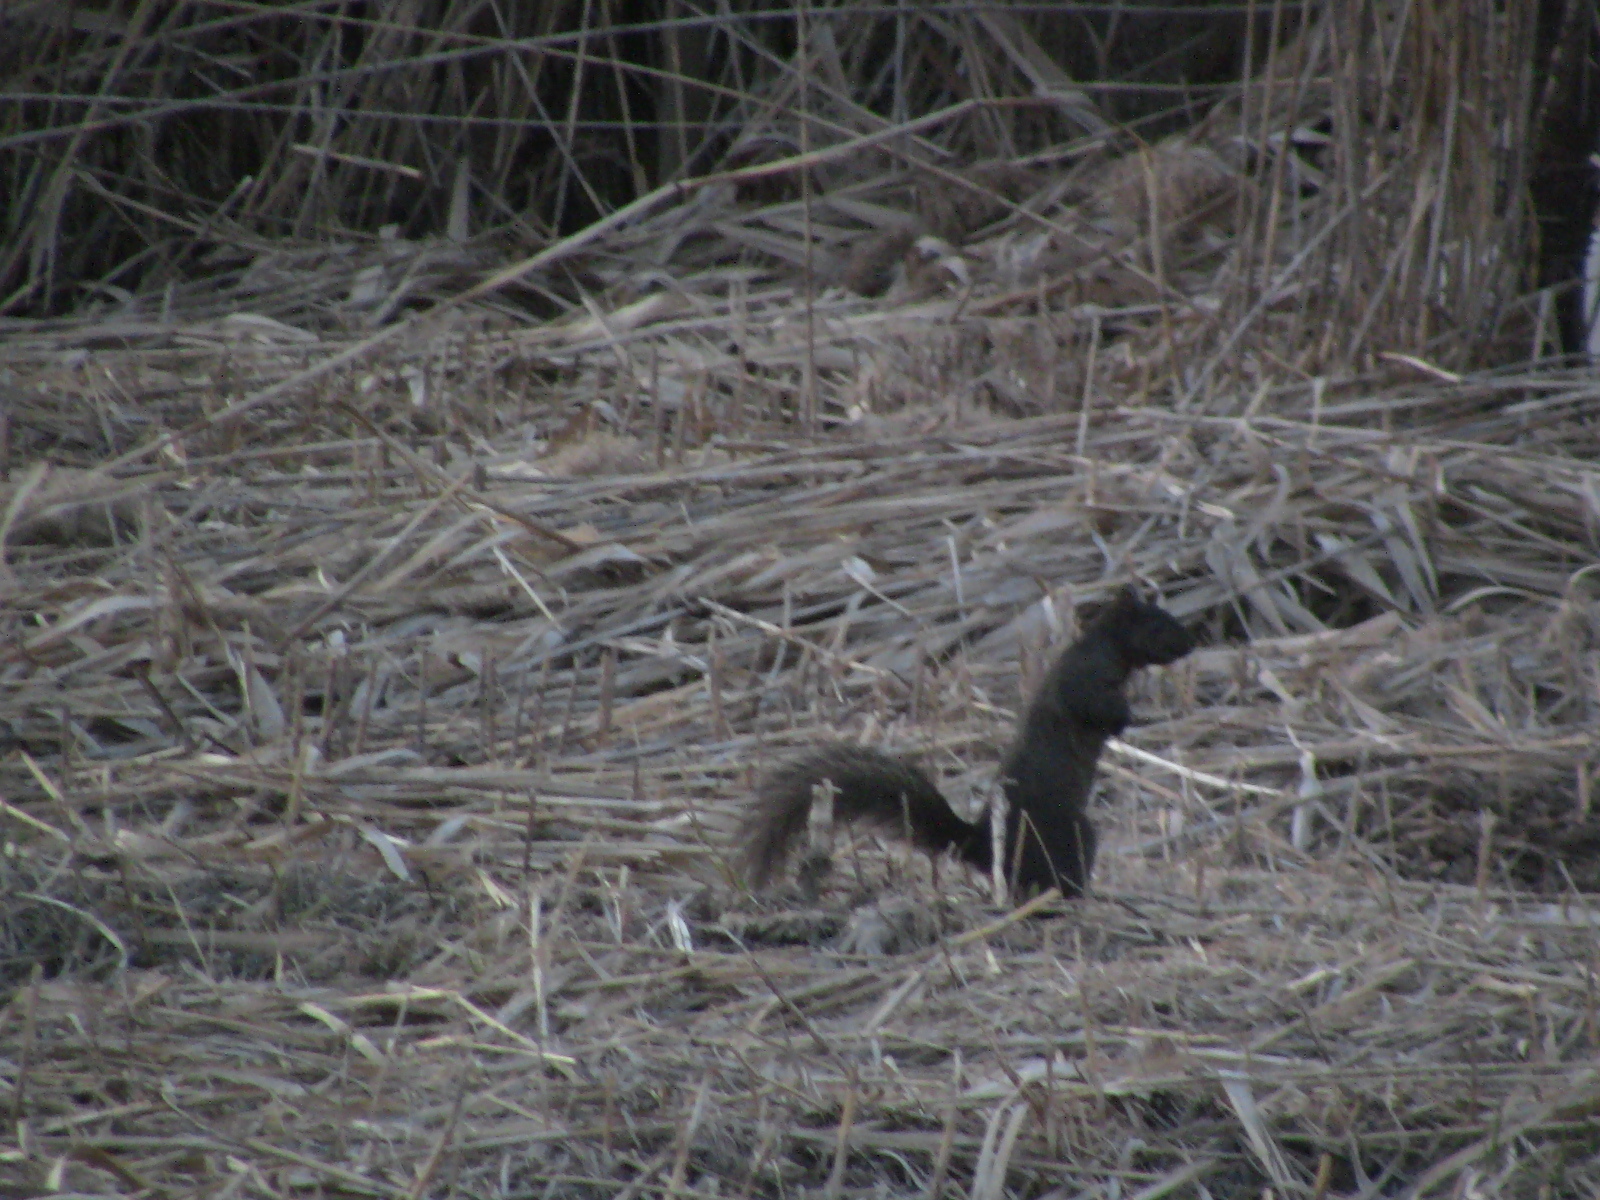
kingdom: Animalia
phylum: Chordata
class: Mammalia
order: Rodentia
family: Sciuridae
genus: Sciurus
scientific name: Sciurus carolinensis
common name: Eastern gray squirrel
